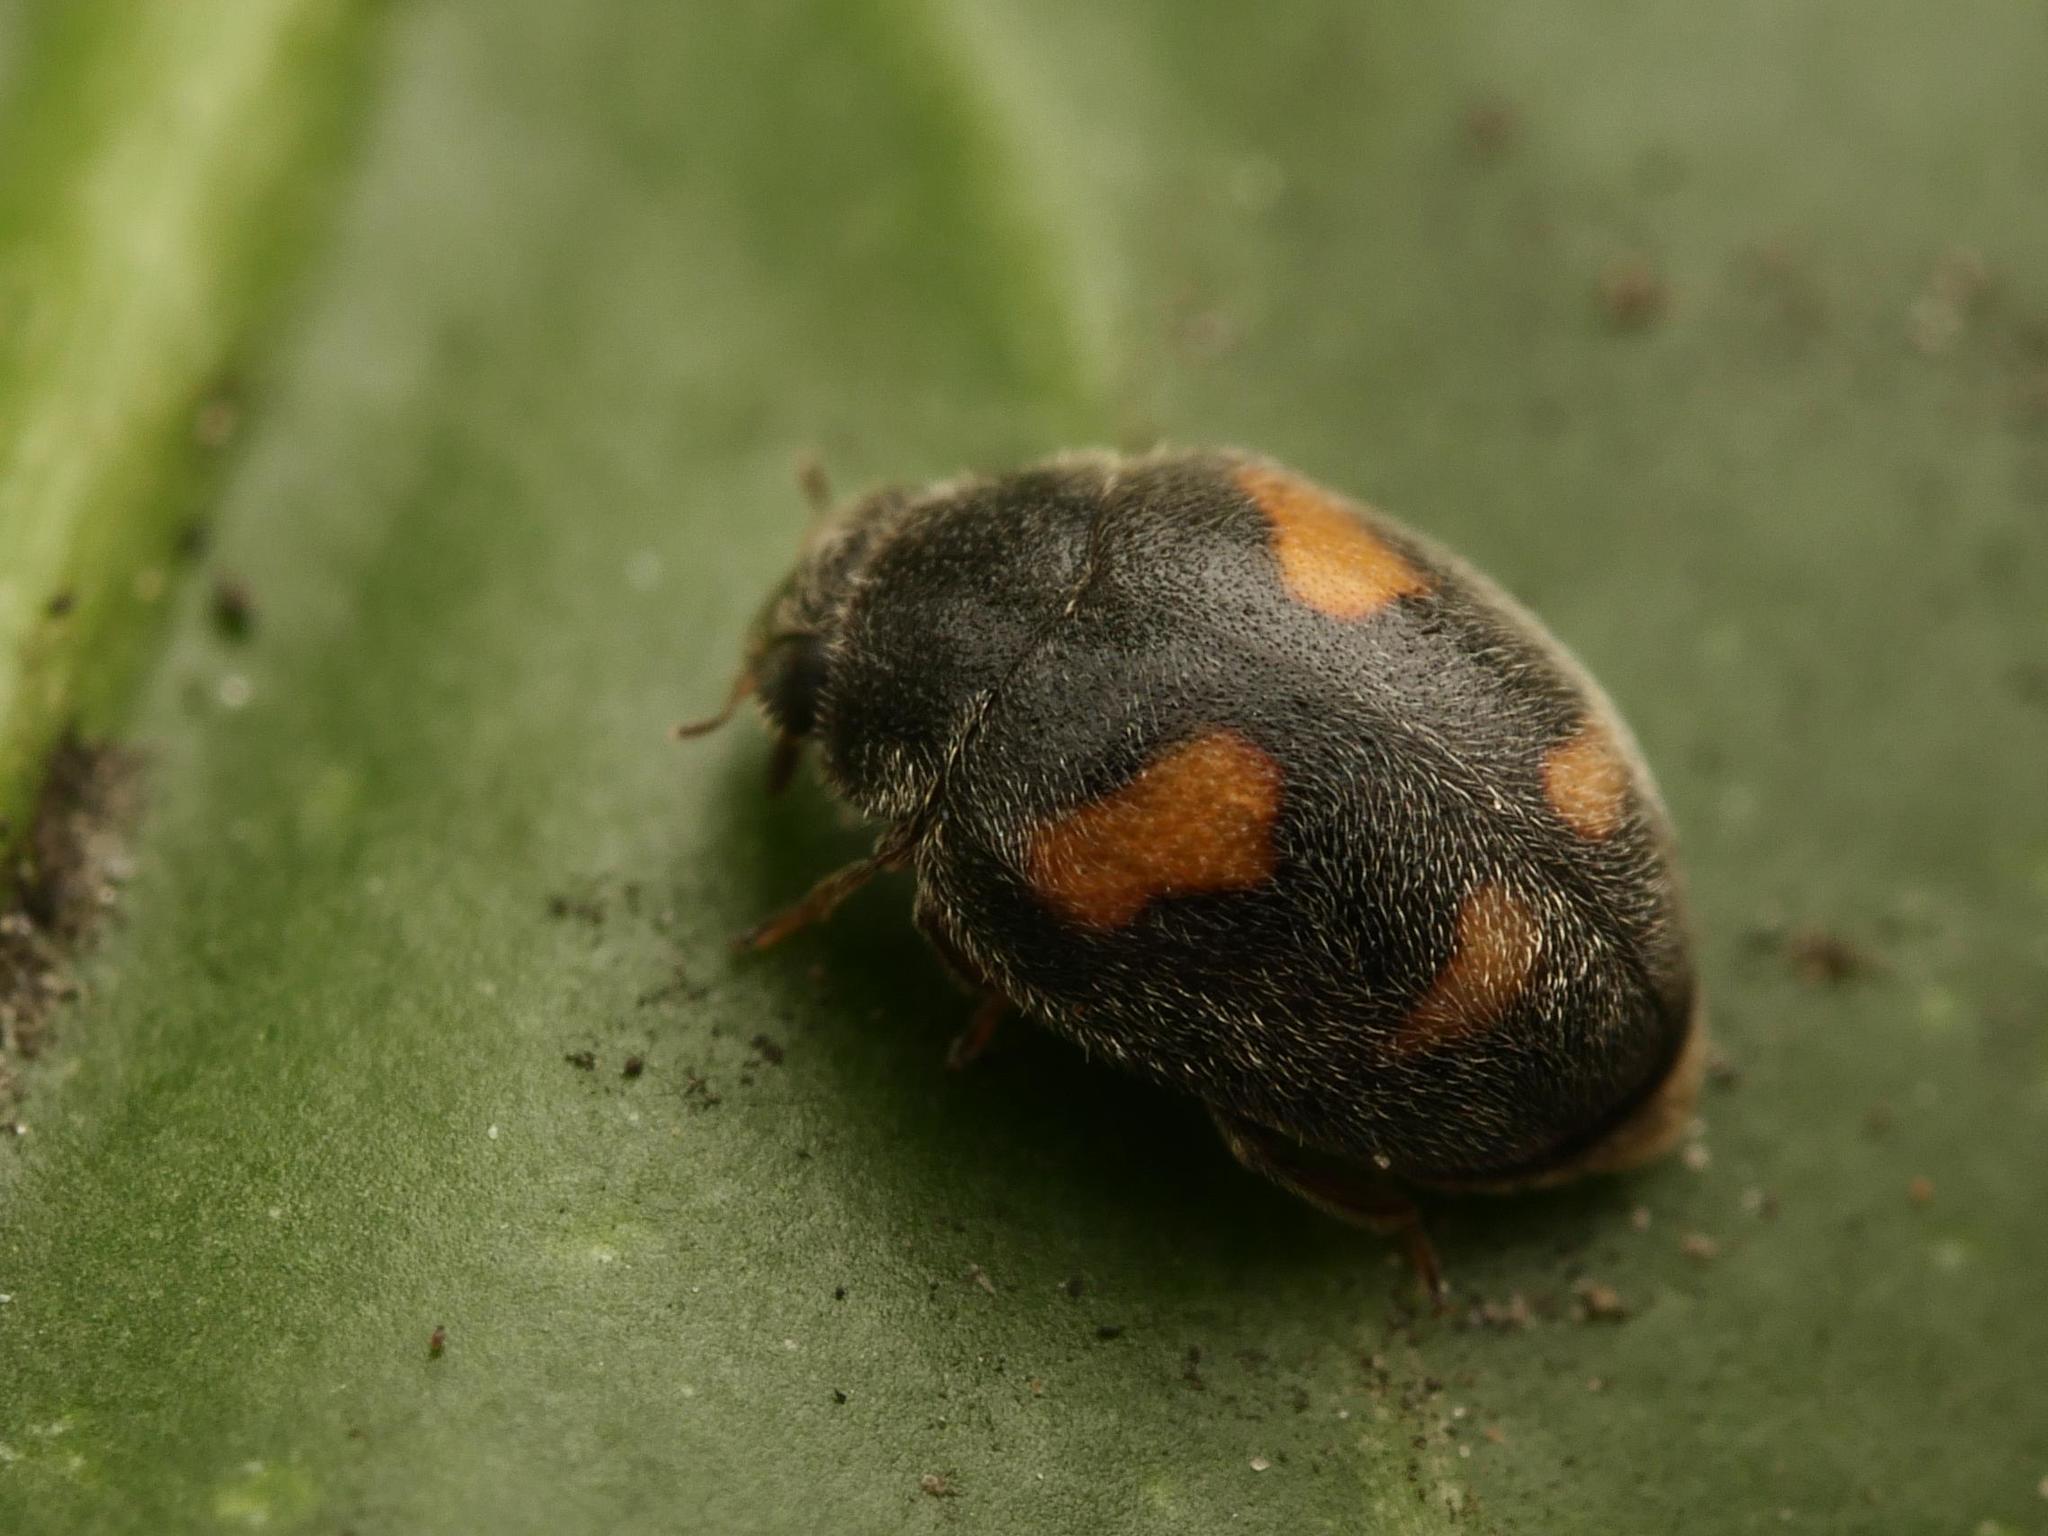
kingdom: Animalia
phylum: Arthropoda
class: Insecta
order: Coleoptera
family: Coccinellidae
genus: Nephus
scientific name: Nephus quadrimaculatus
